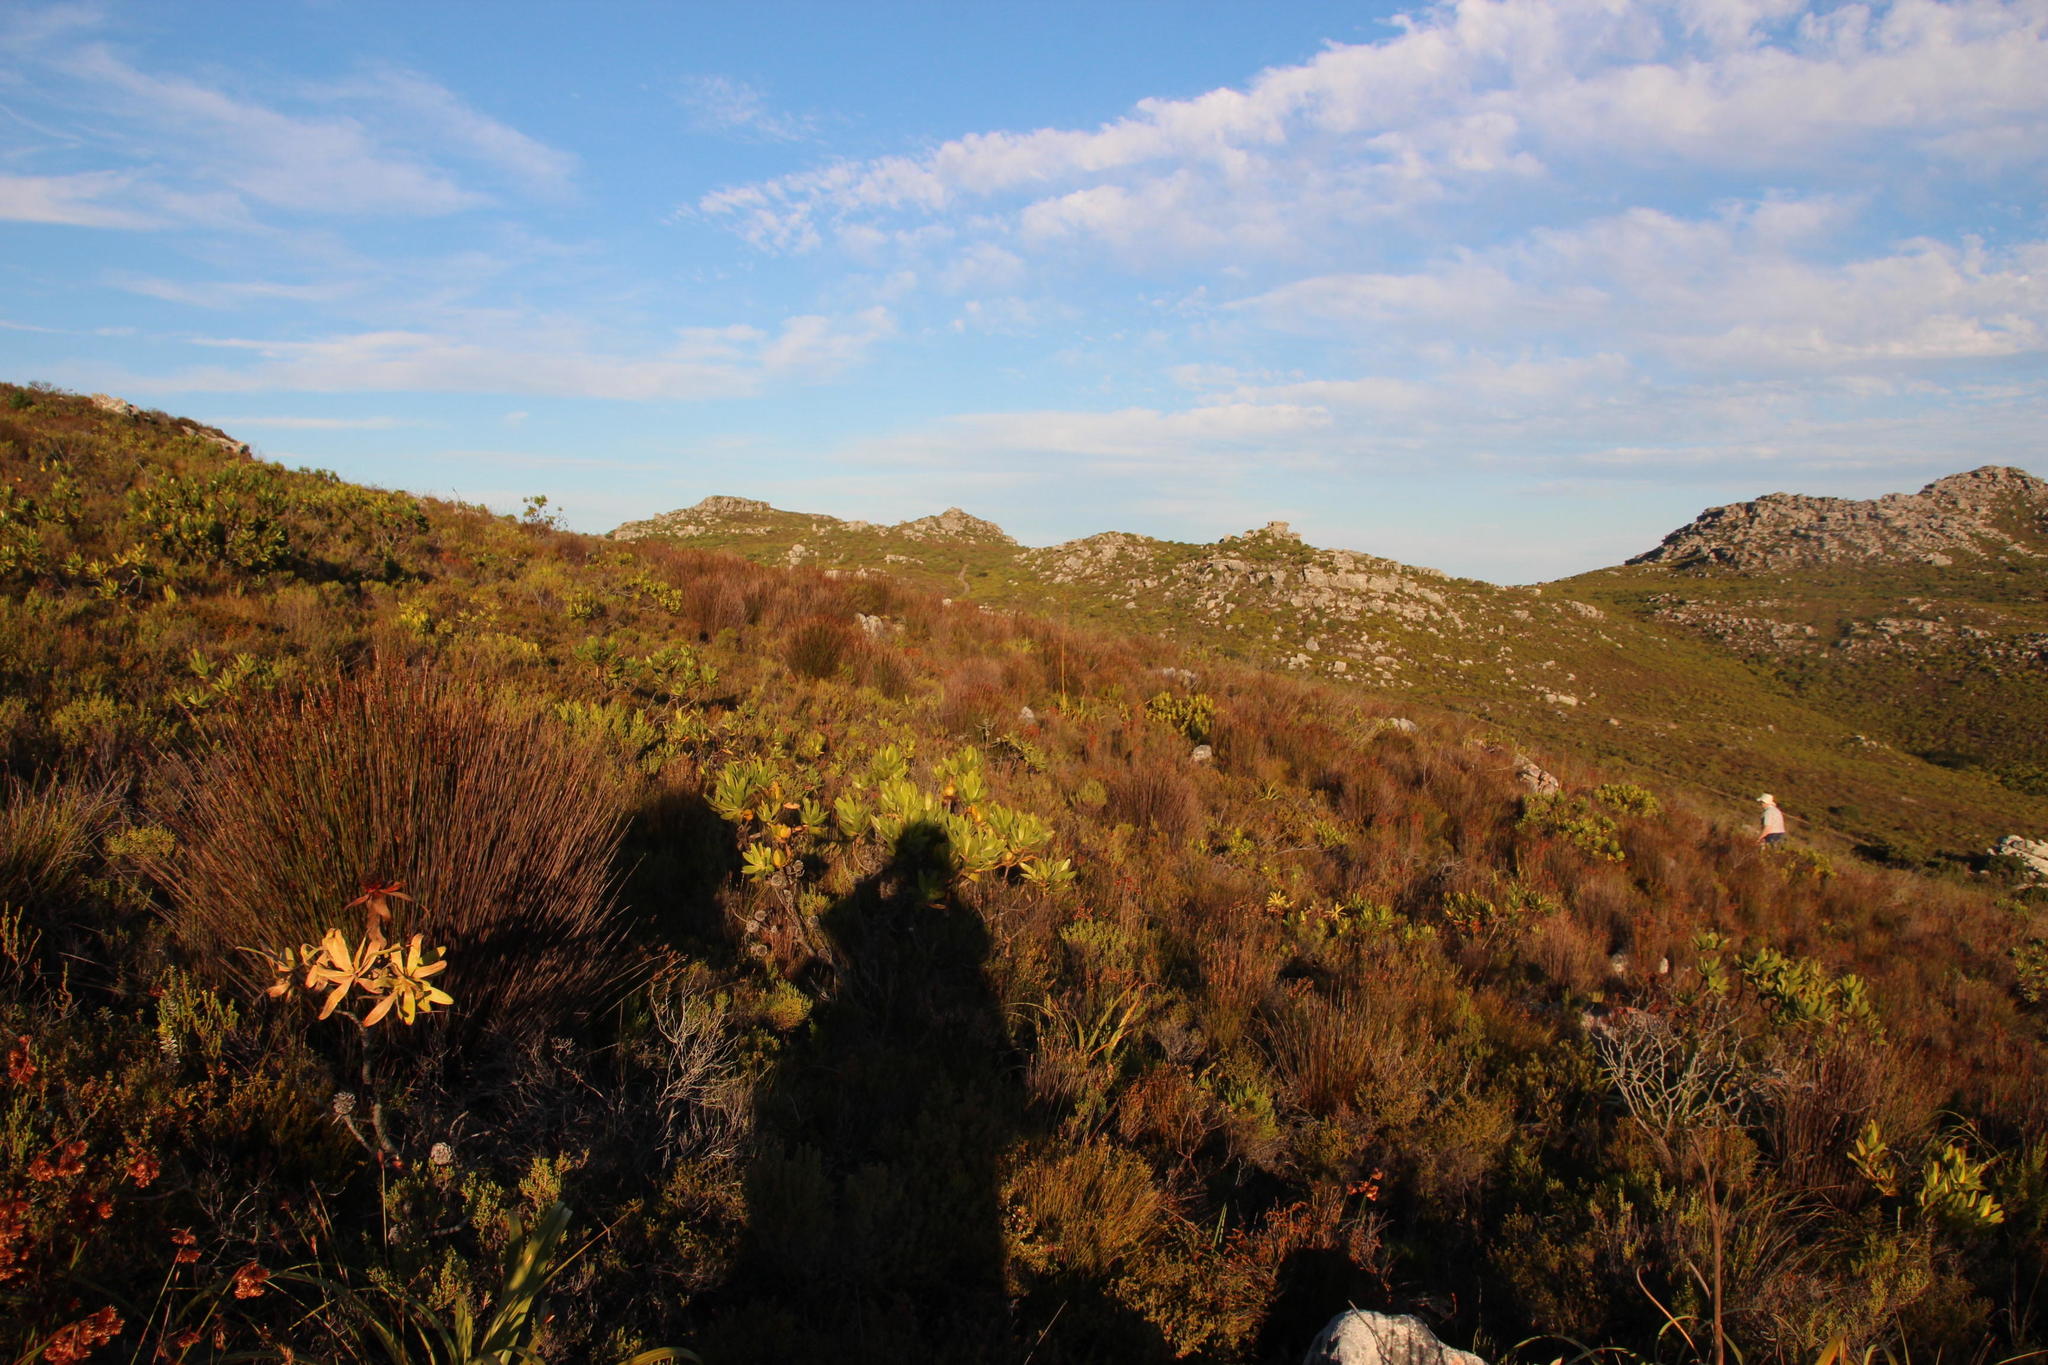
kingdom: Plantae
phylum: Tracheophyta
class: Liliopsida
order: Poales
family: Restionaceae
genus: Elegia
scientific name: Elegia hookeriana
